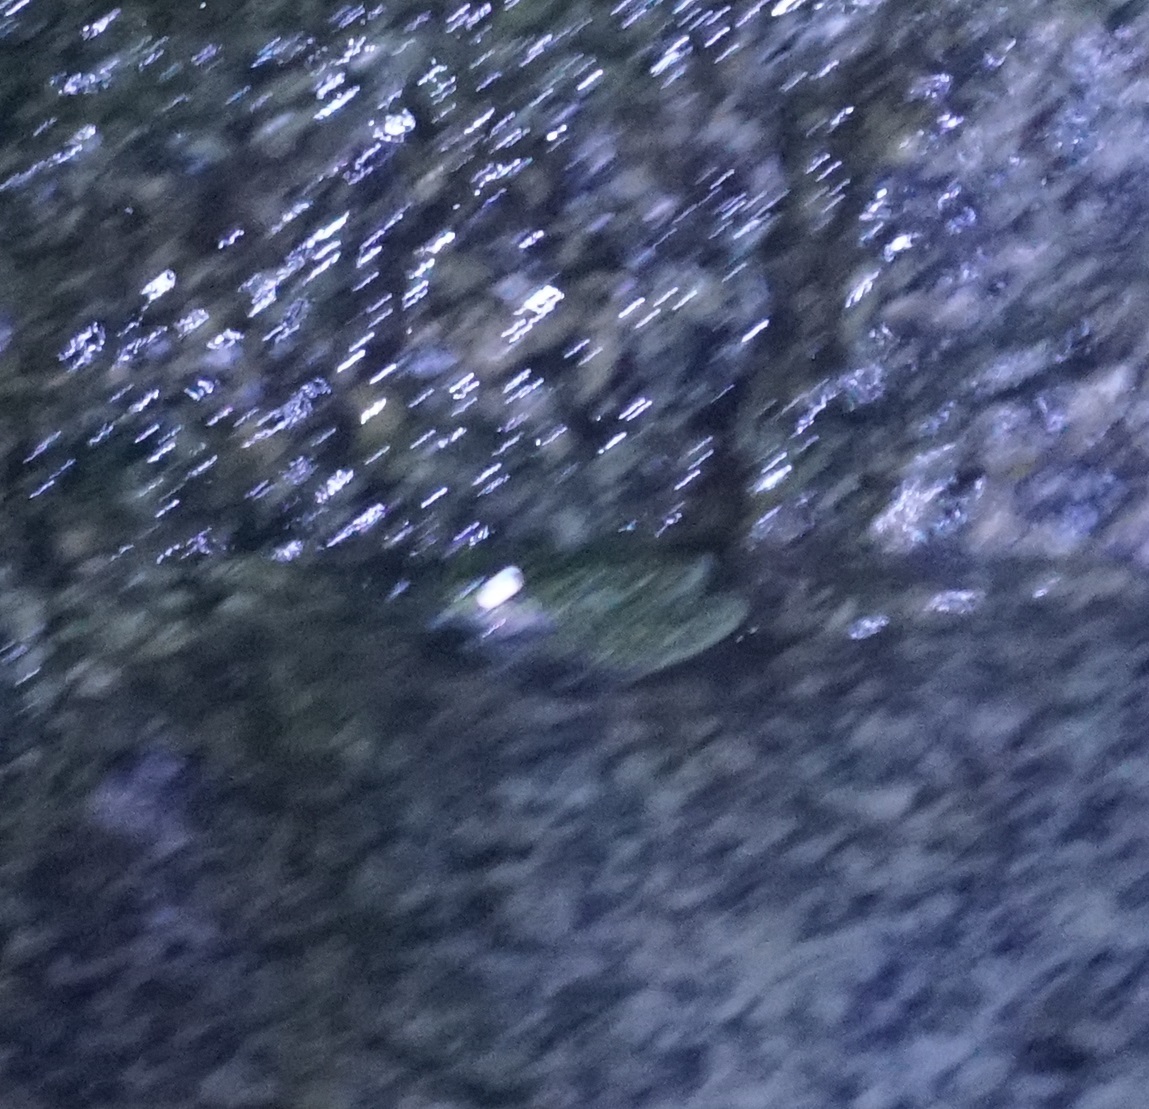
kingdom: Animalia
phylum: Chordata
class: Amphibia
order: Anura
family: Pelodryadidae
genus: Ranoidea
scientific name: Ranoidea nannotis
